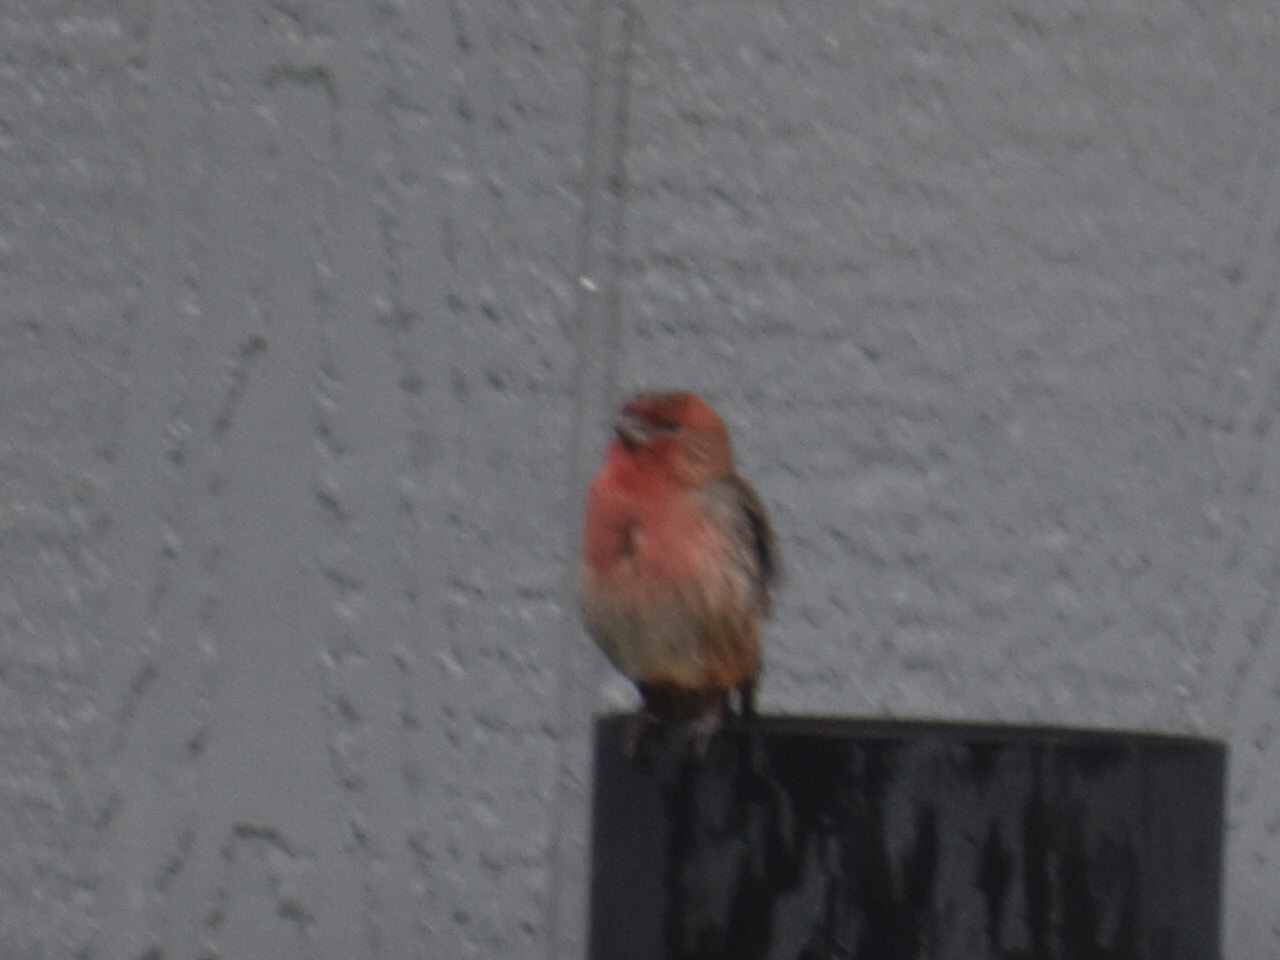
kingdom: Animalia
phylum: Chordata
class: Aves
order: Passeriformes
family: Fringillidae
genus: Haemorhous
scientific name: Haemorhous mexicanus
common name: House finch
